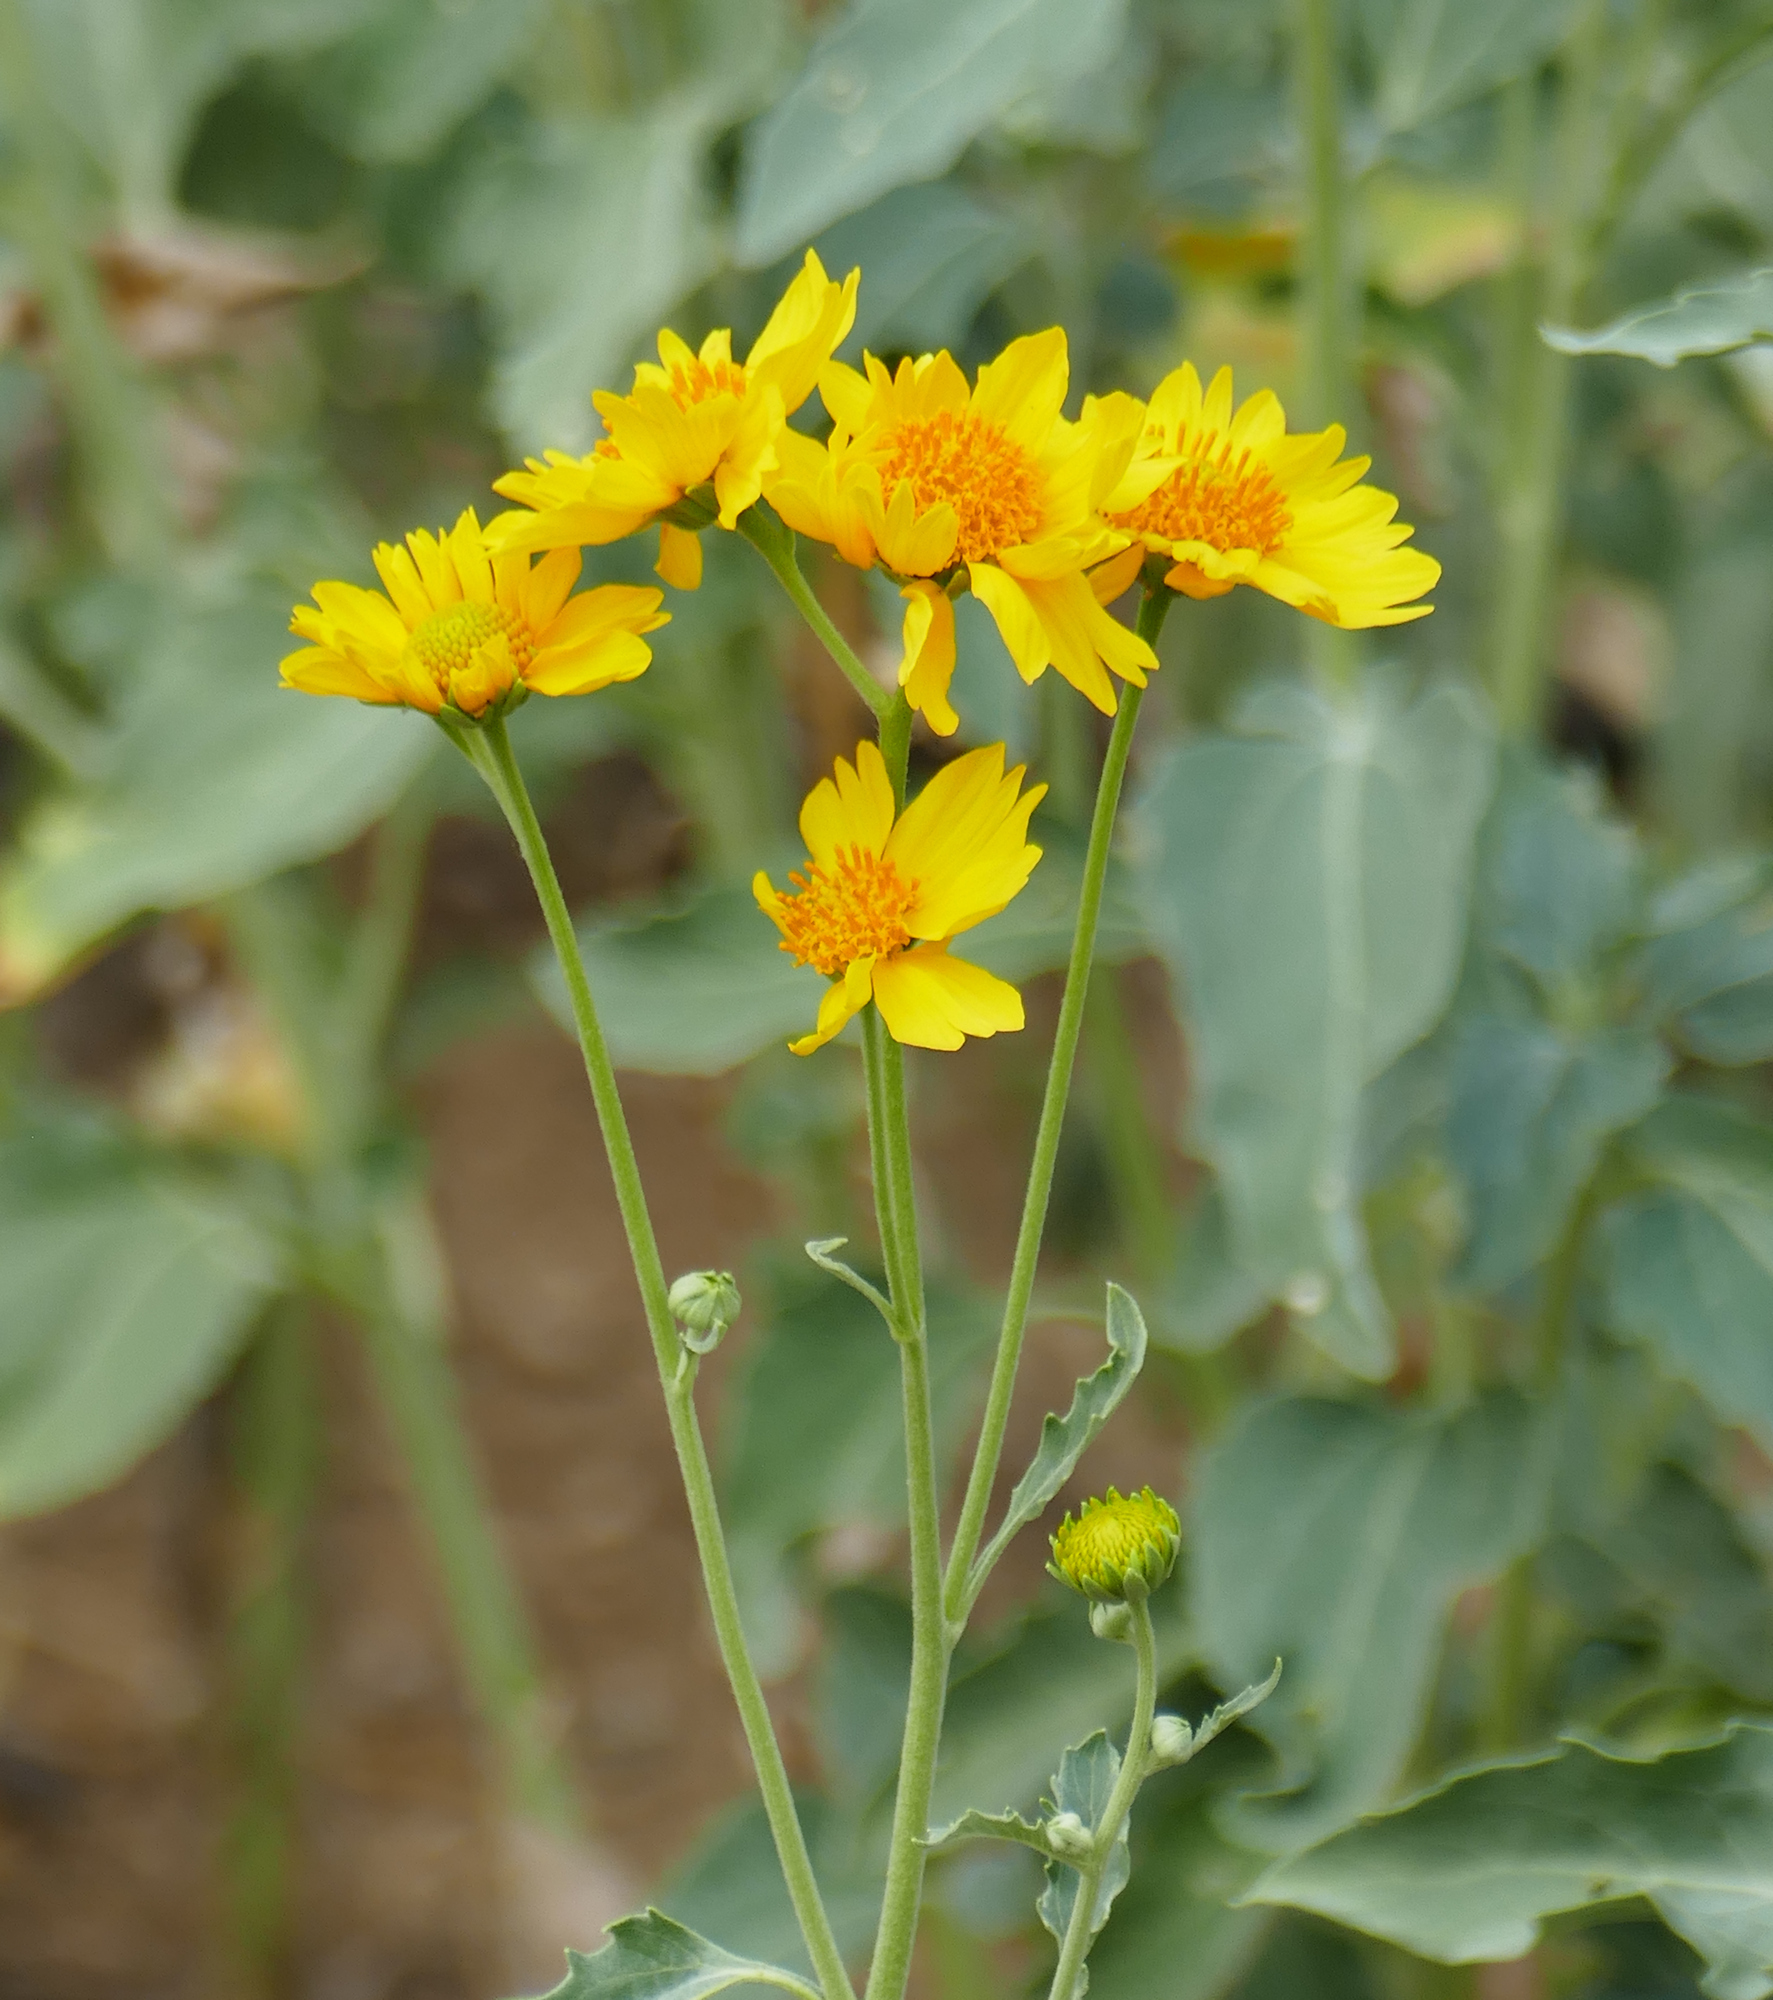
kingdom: Plantae
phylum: Tracheophyta
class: Magnoliopsida
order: Asterales
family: Asteraceae
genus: Verbesina
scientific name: Verbesina encelioides
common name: Golden crownbeard
